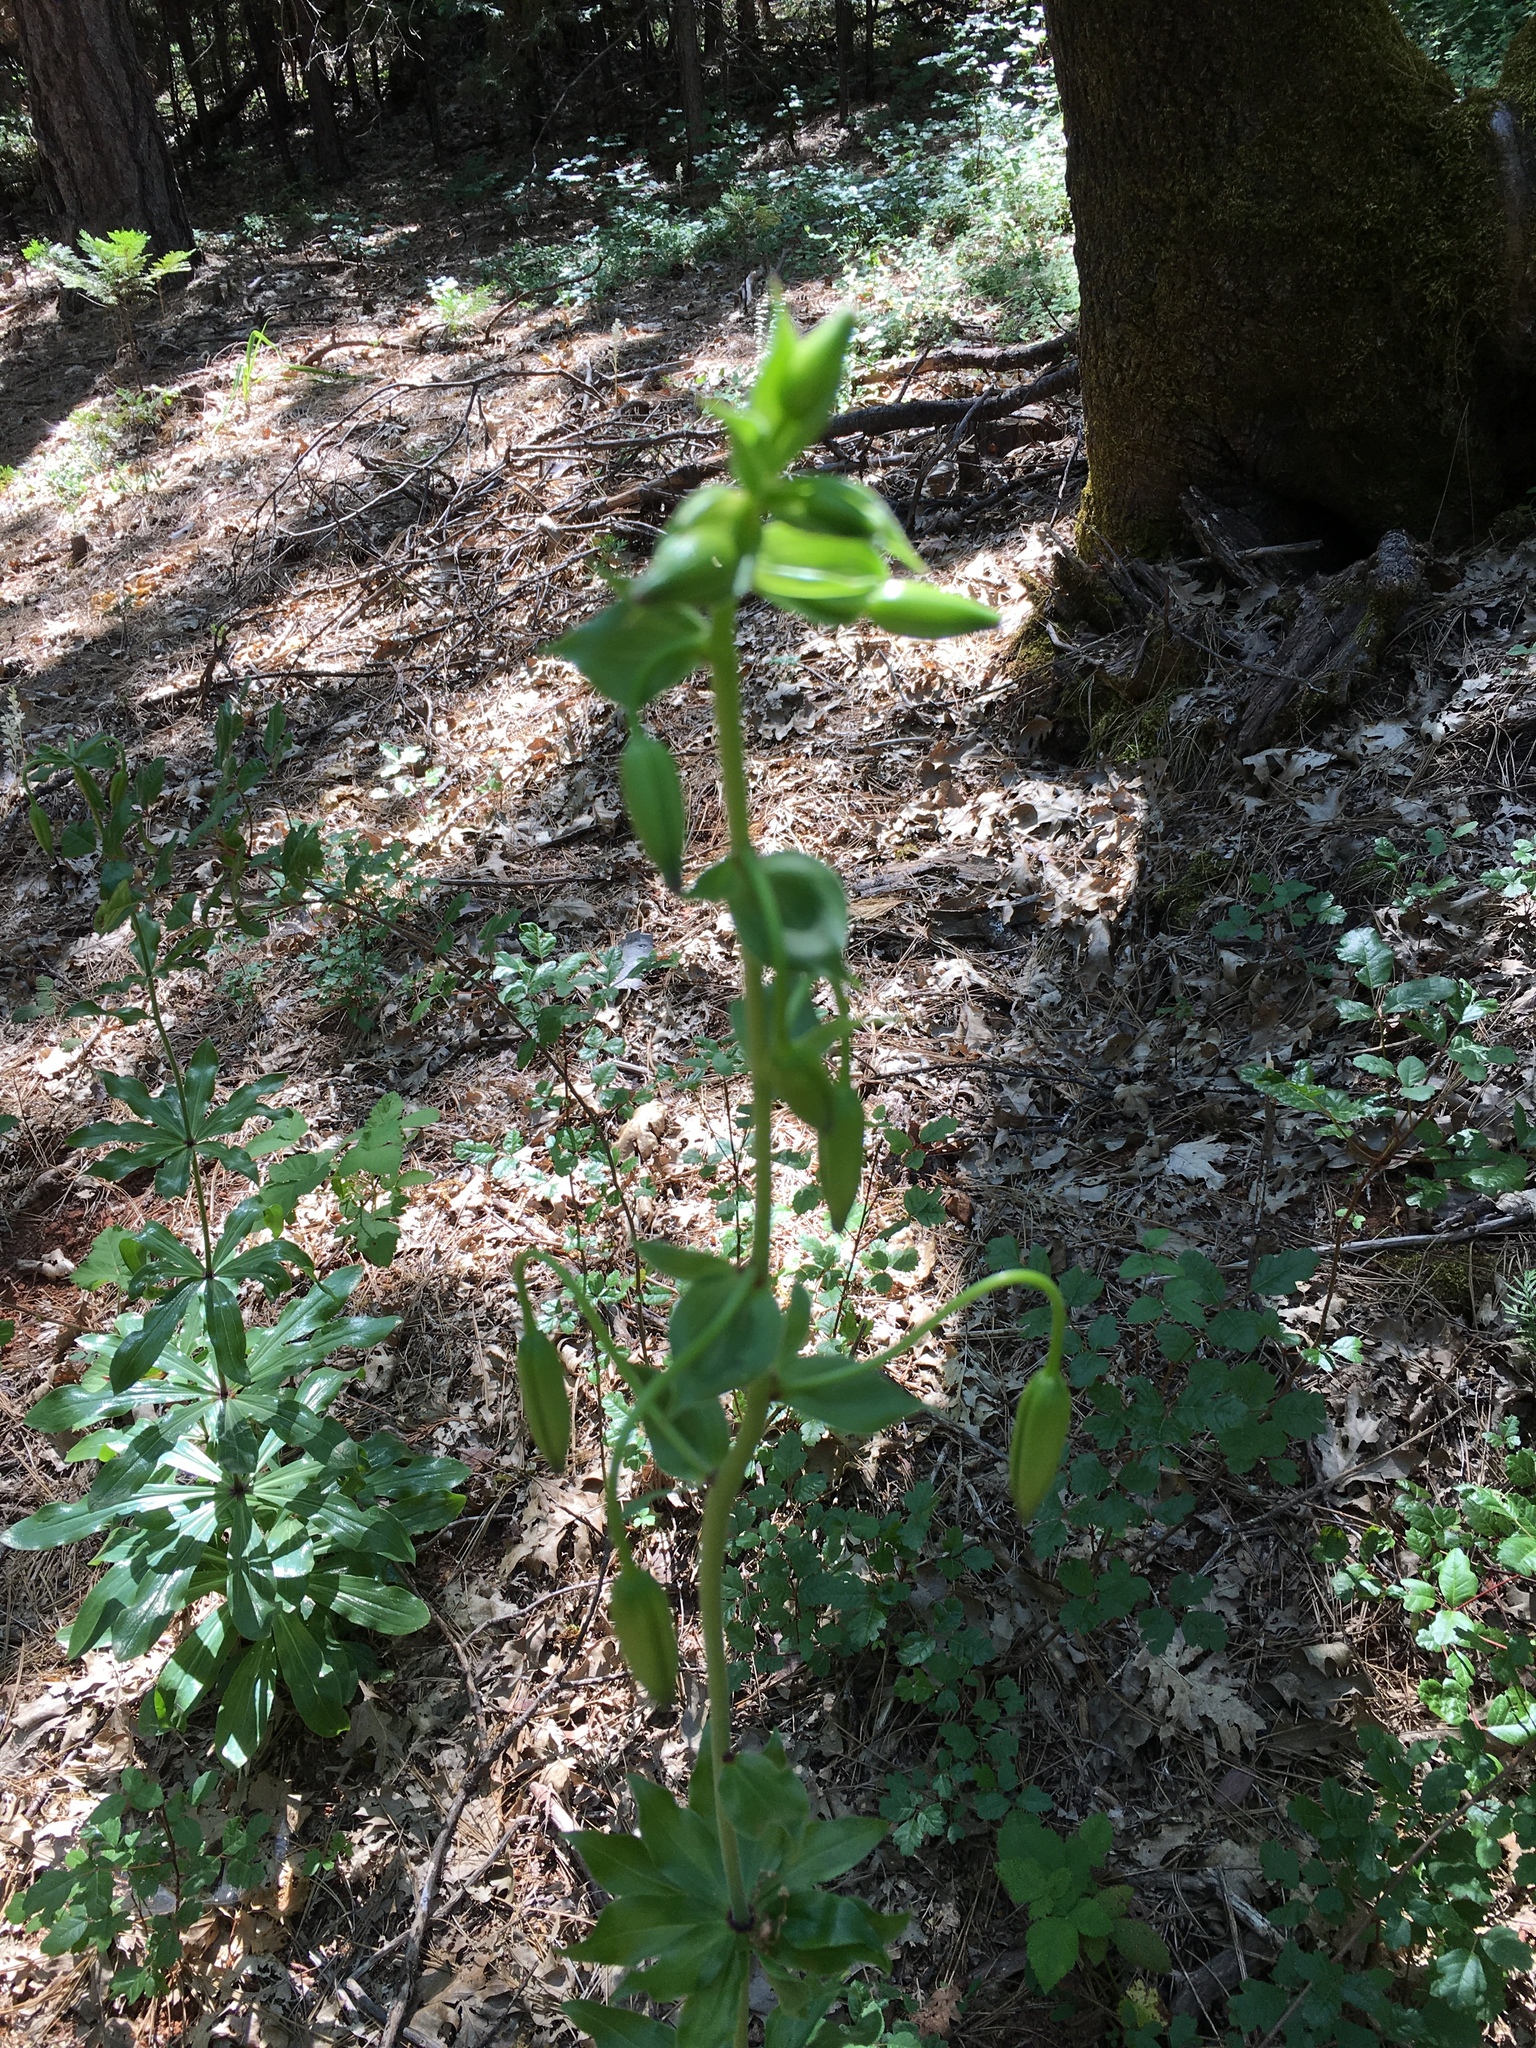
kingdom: Plantae
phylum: Tracheophyta
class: Liliopsida
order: Liliales
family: Liliaceae
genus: Lilium
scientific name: Lilium humboldtii
